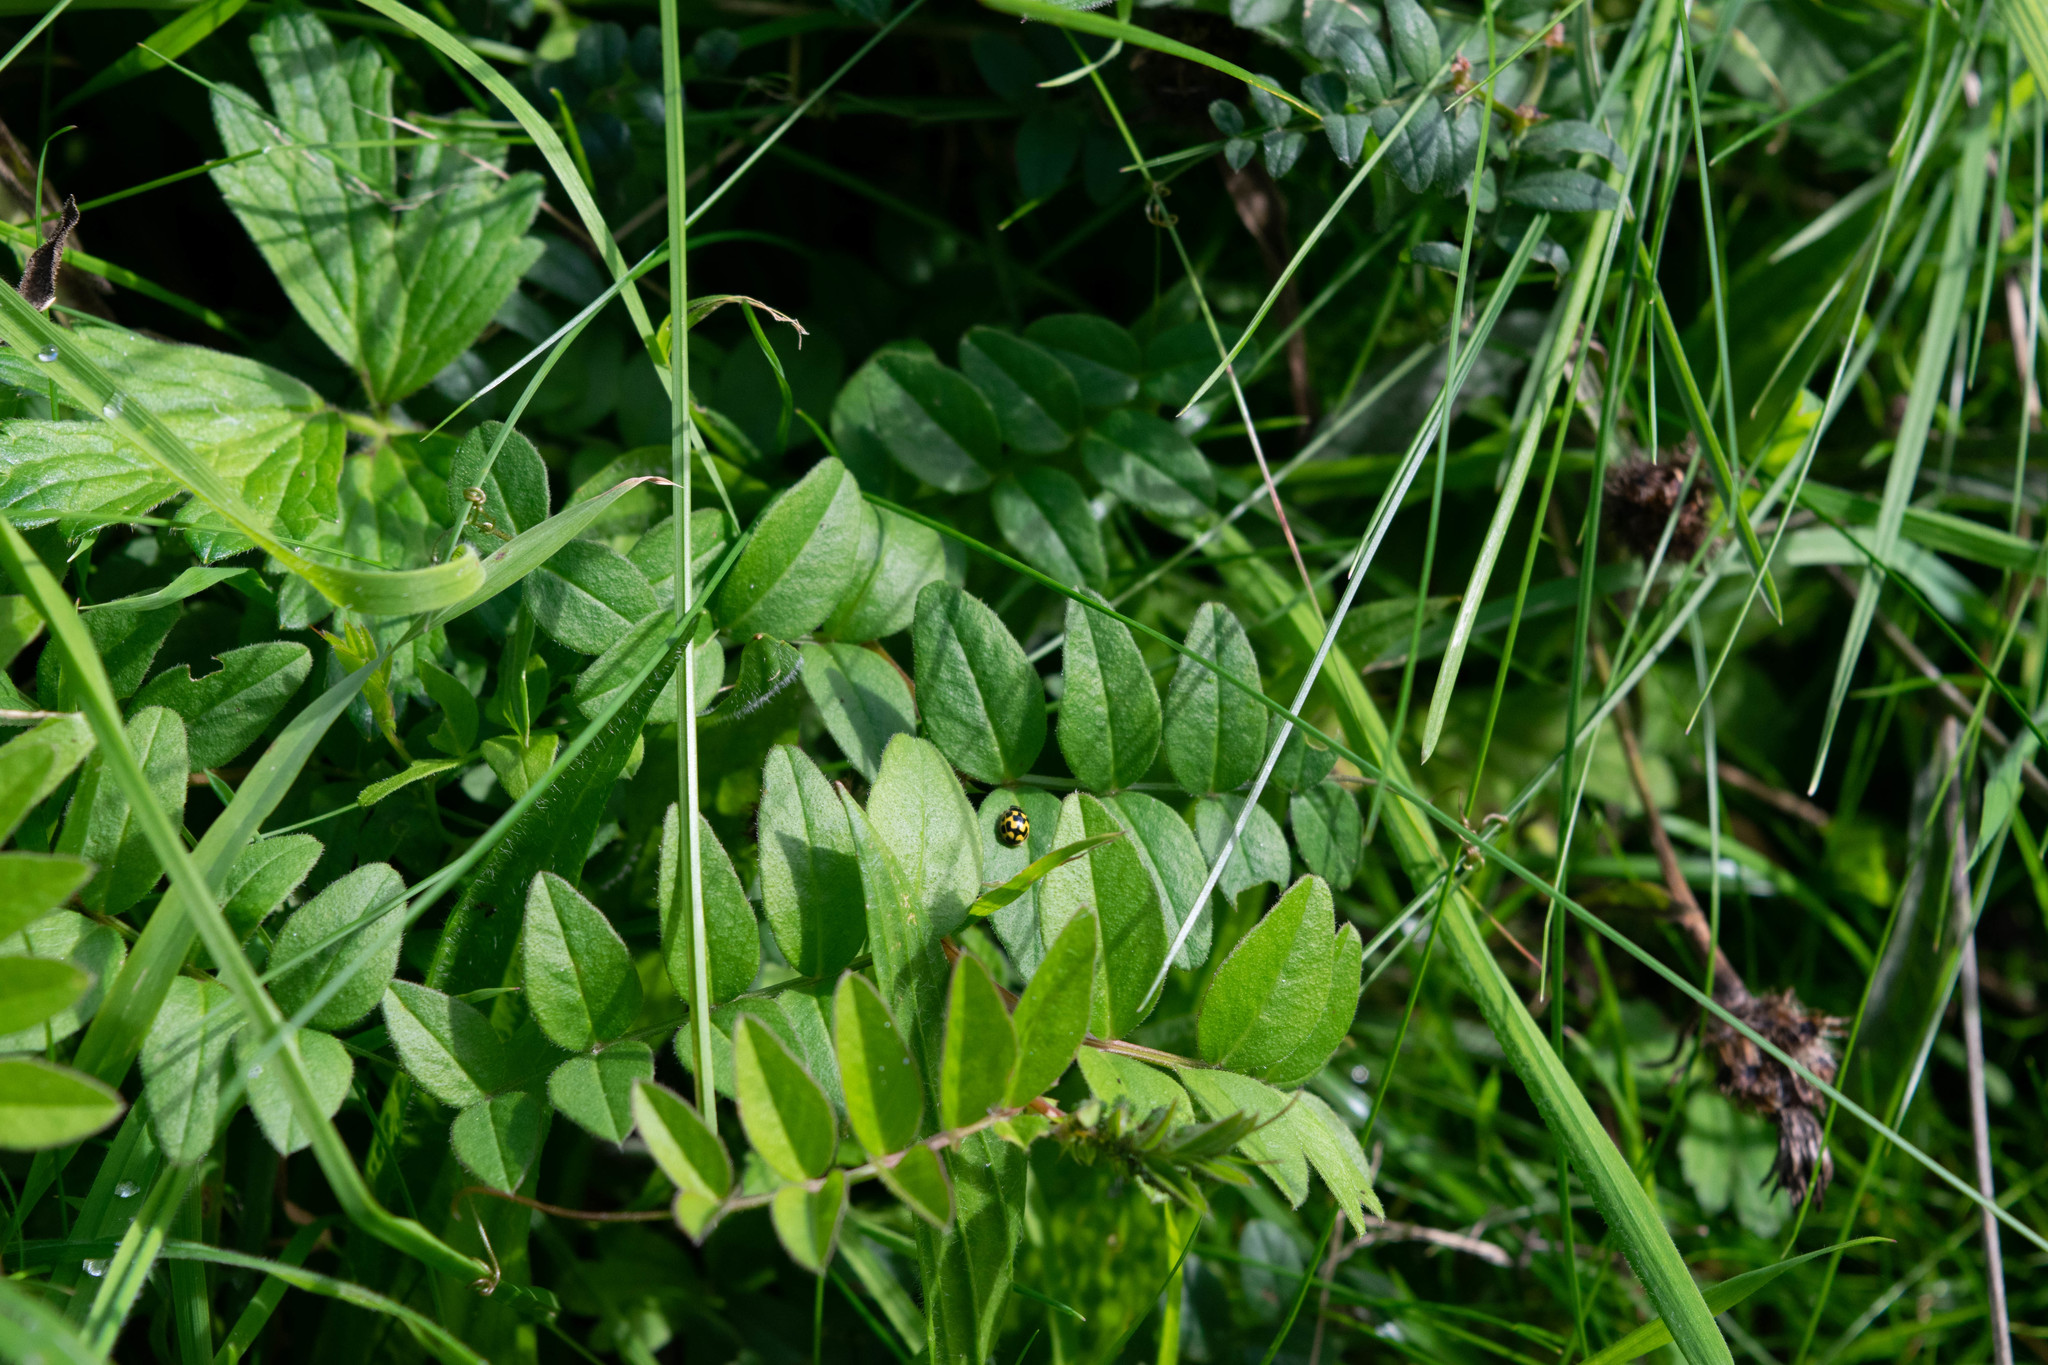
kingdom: Animalia
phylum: Arthropoda
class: Insecta
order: Coleoptera
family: Coccinellidae
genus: Propylaea
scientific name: Propylaea quatuordecimpunctata
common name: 14-spotted ladybird beetle
